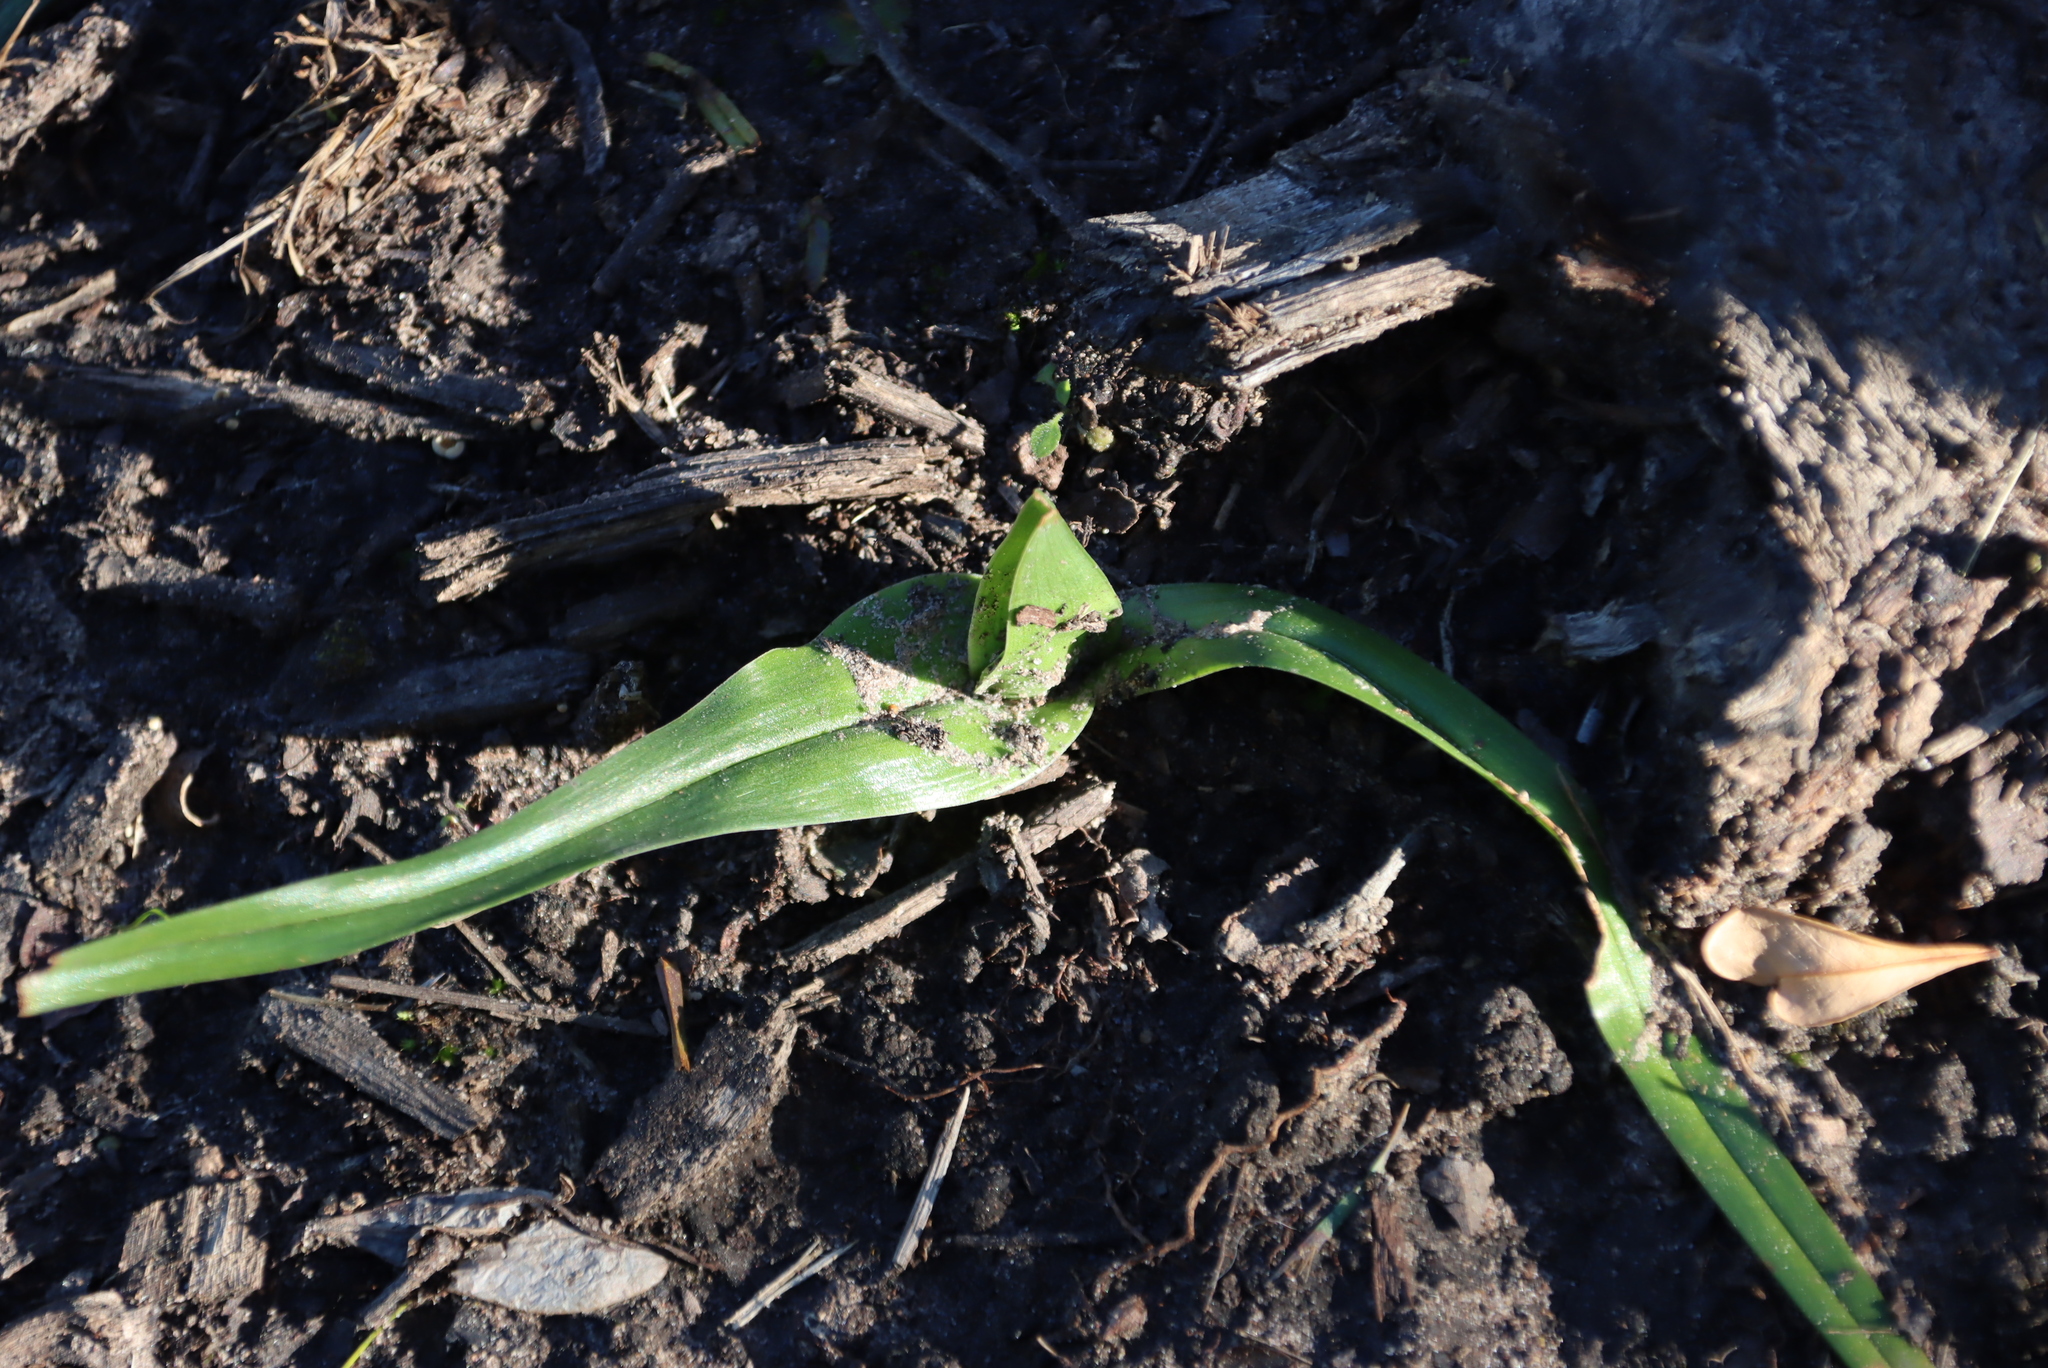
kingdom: Plantae
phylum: Tracheophyta
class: Liliopsida
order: Liliales
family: Colchicaceae
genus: Colchicum
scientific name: Colchicum eucomoides
